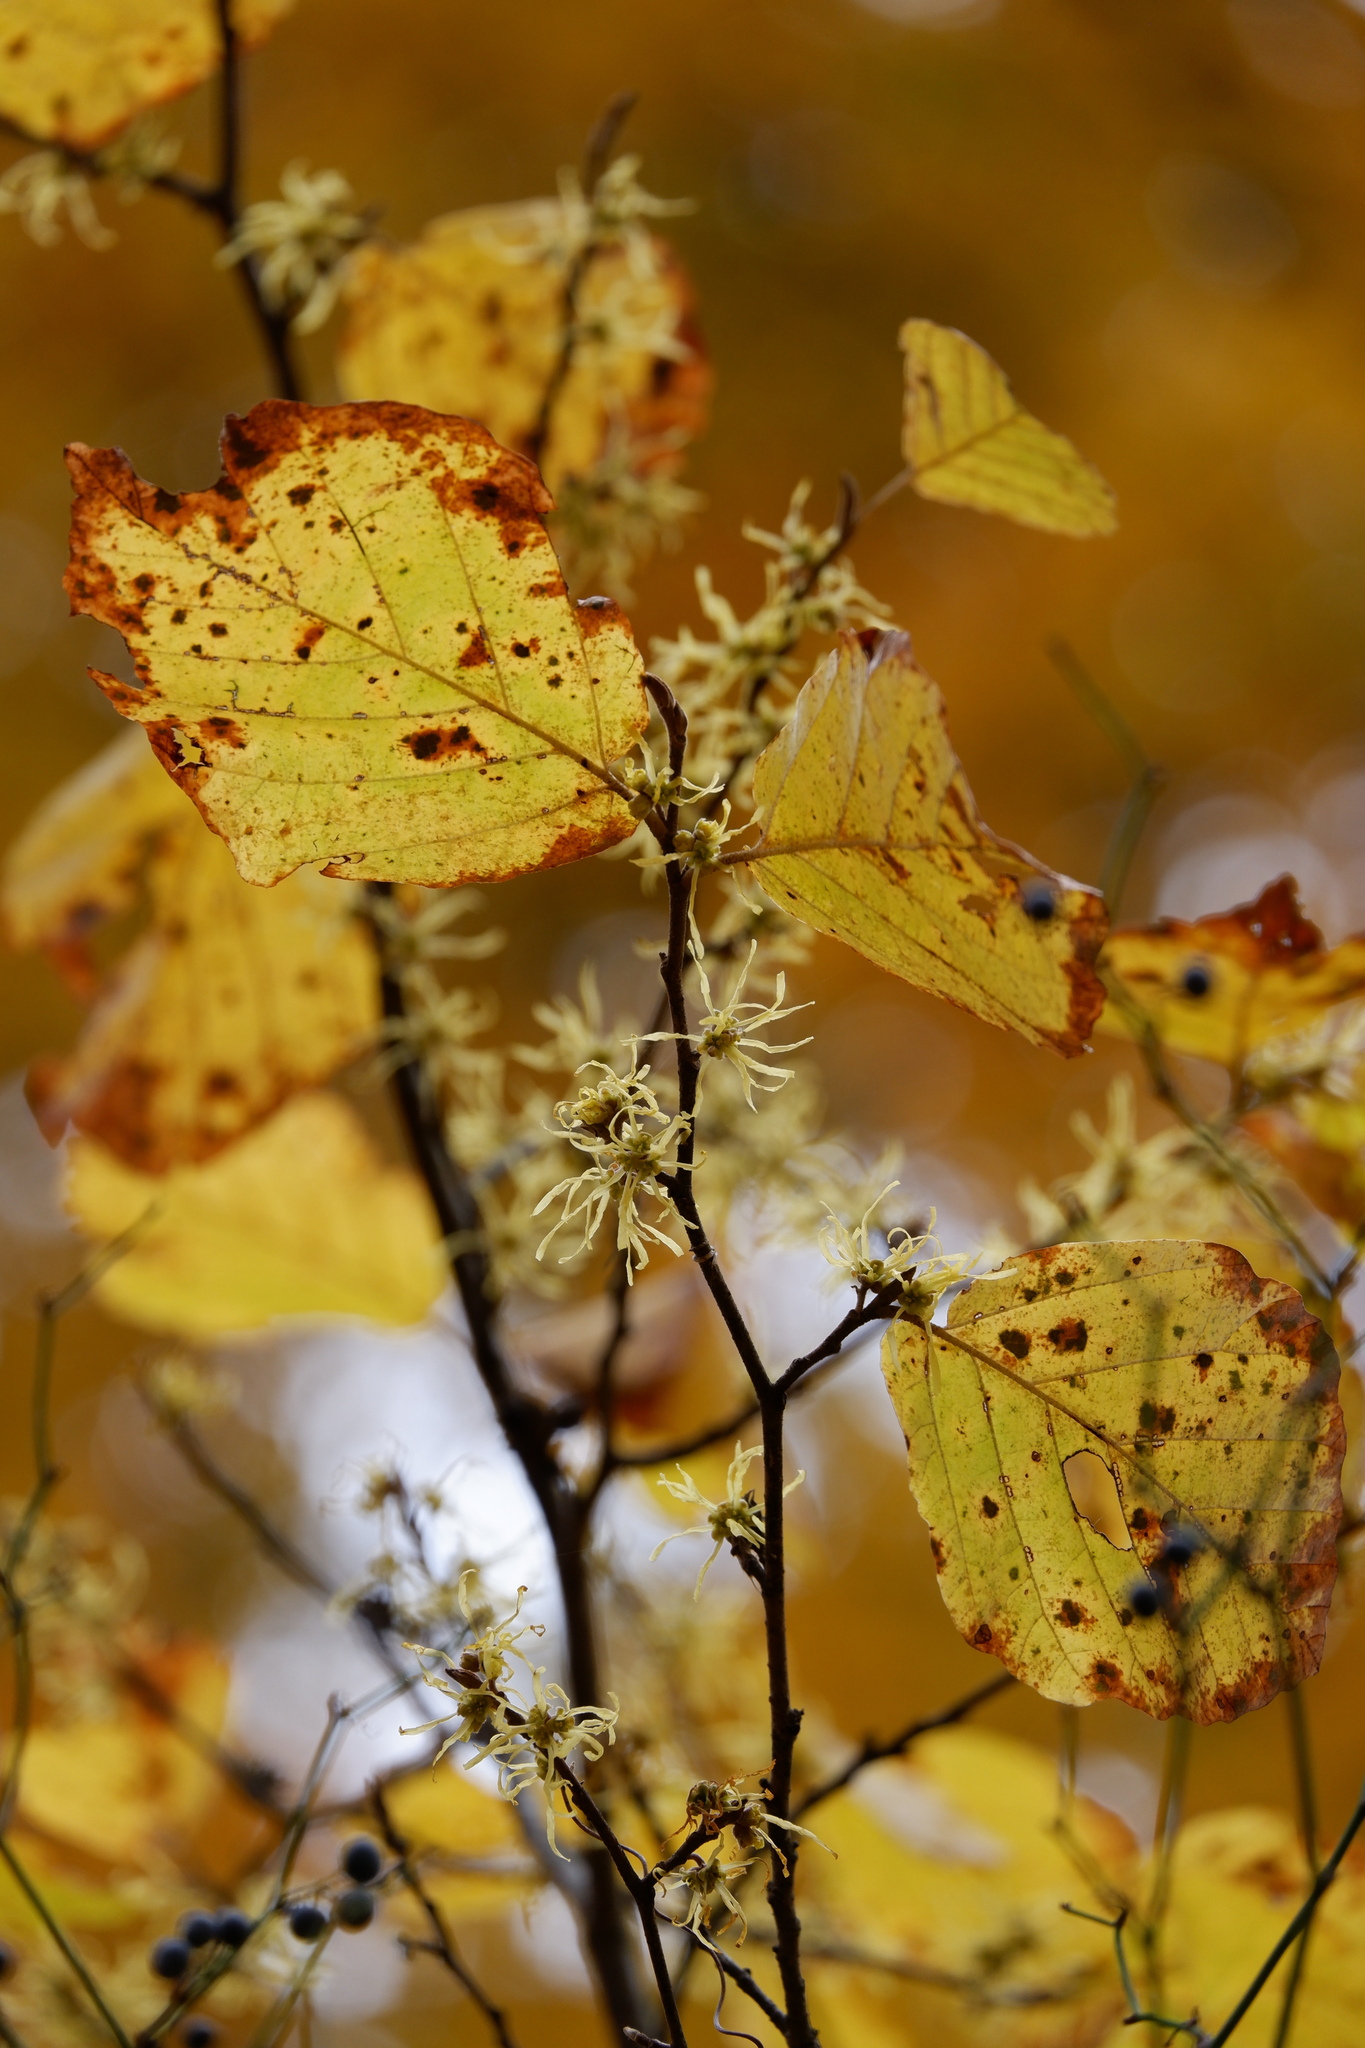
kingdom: Plantae
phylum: Tracheophyta
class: Magnoliopsida
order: Saxifragales
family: Hamamelidaceae
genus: Hamamelis
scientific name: Hamamelis virginiana
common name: Witch-hazel
